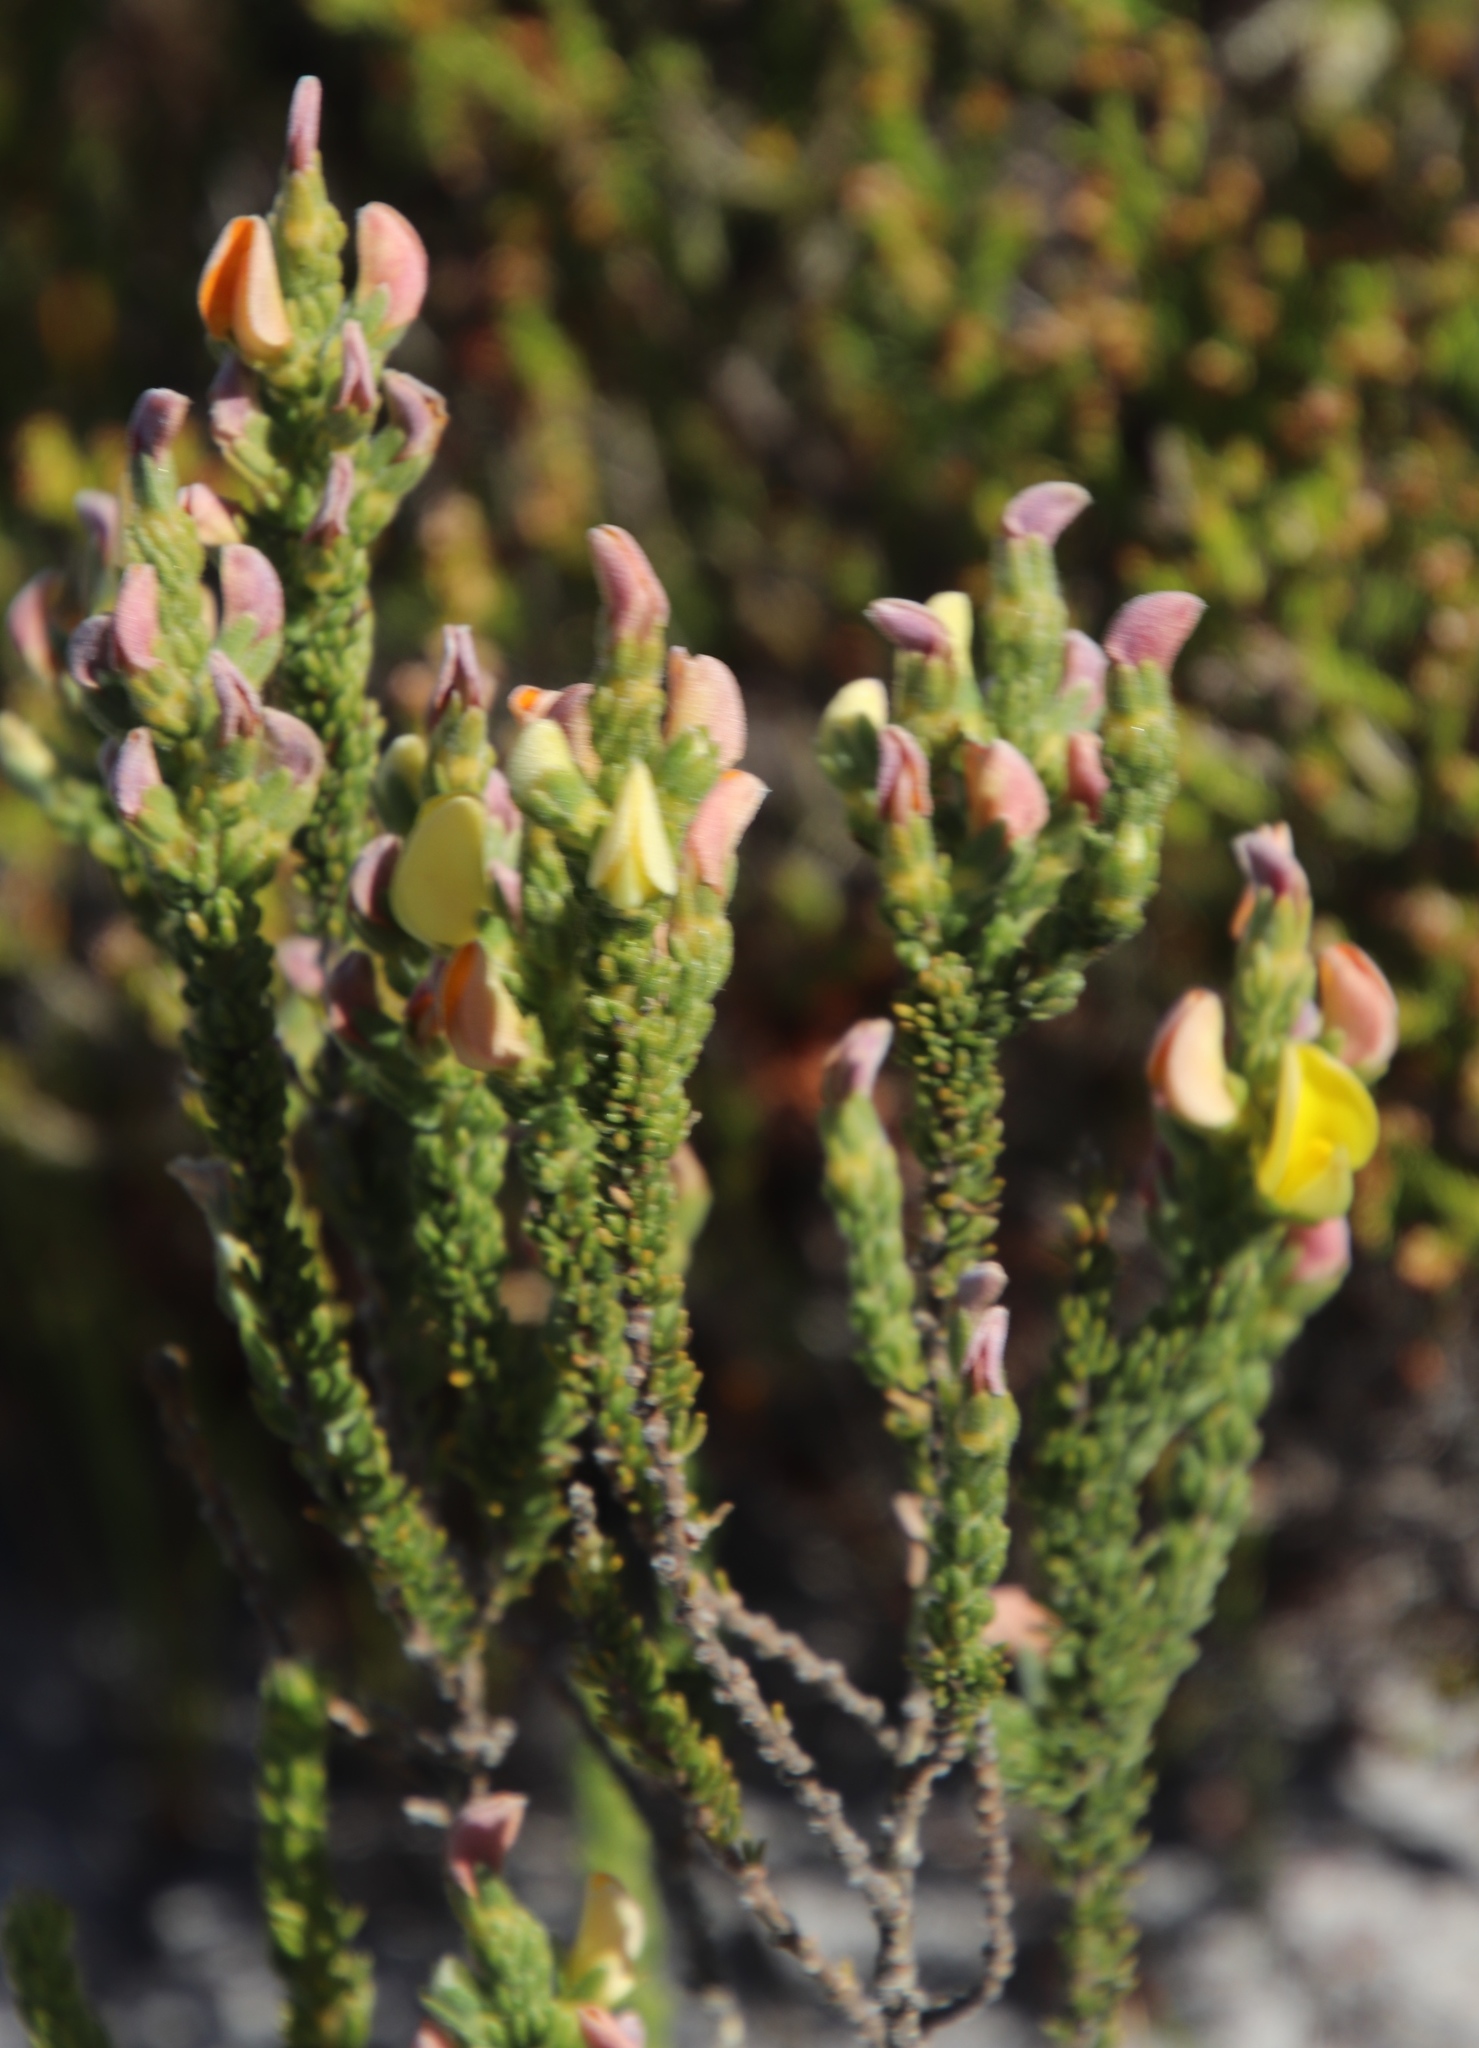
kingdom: Plantae
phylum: Tracheophyta
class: Magnoliopsida
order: Fabales
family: Fabaceae
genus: Aspalathus
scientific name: Aspalathus linguiloba
